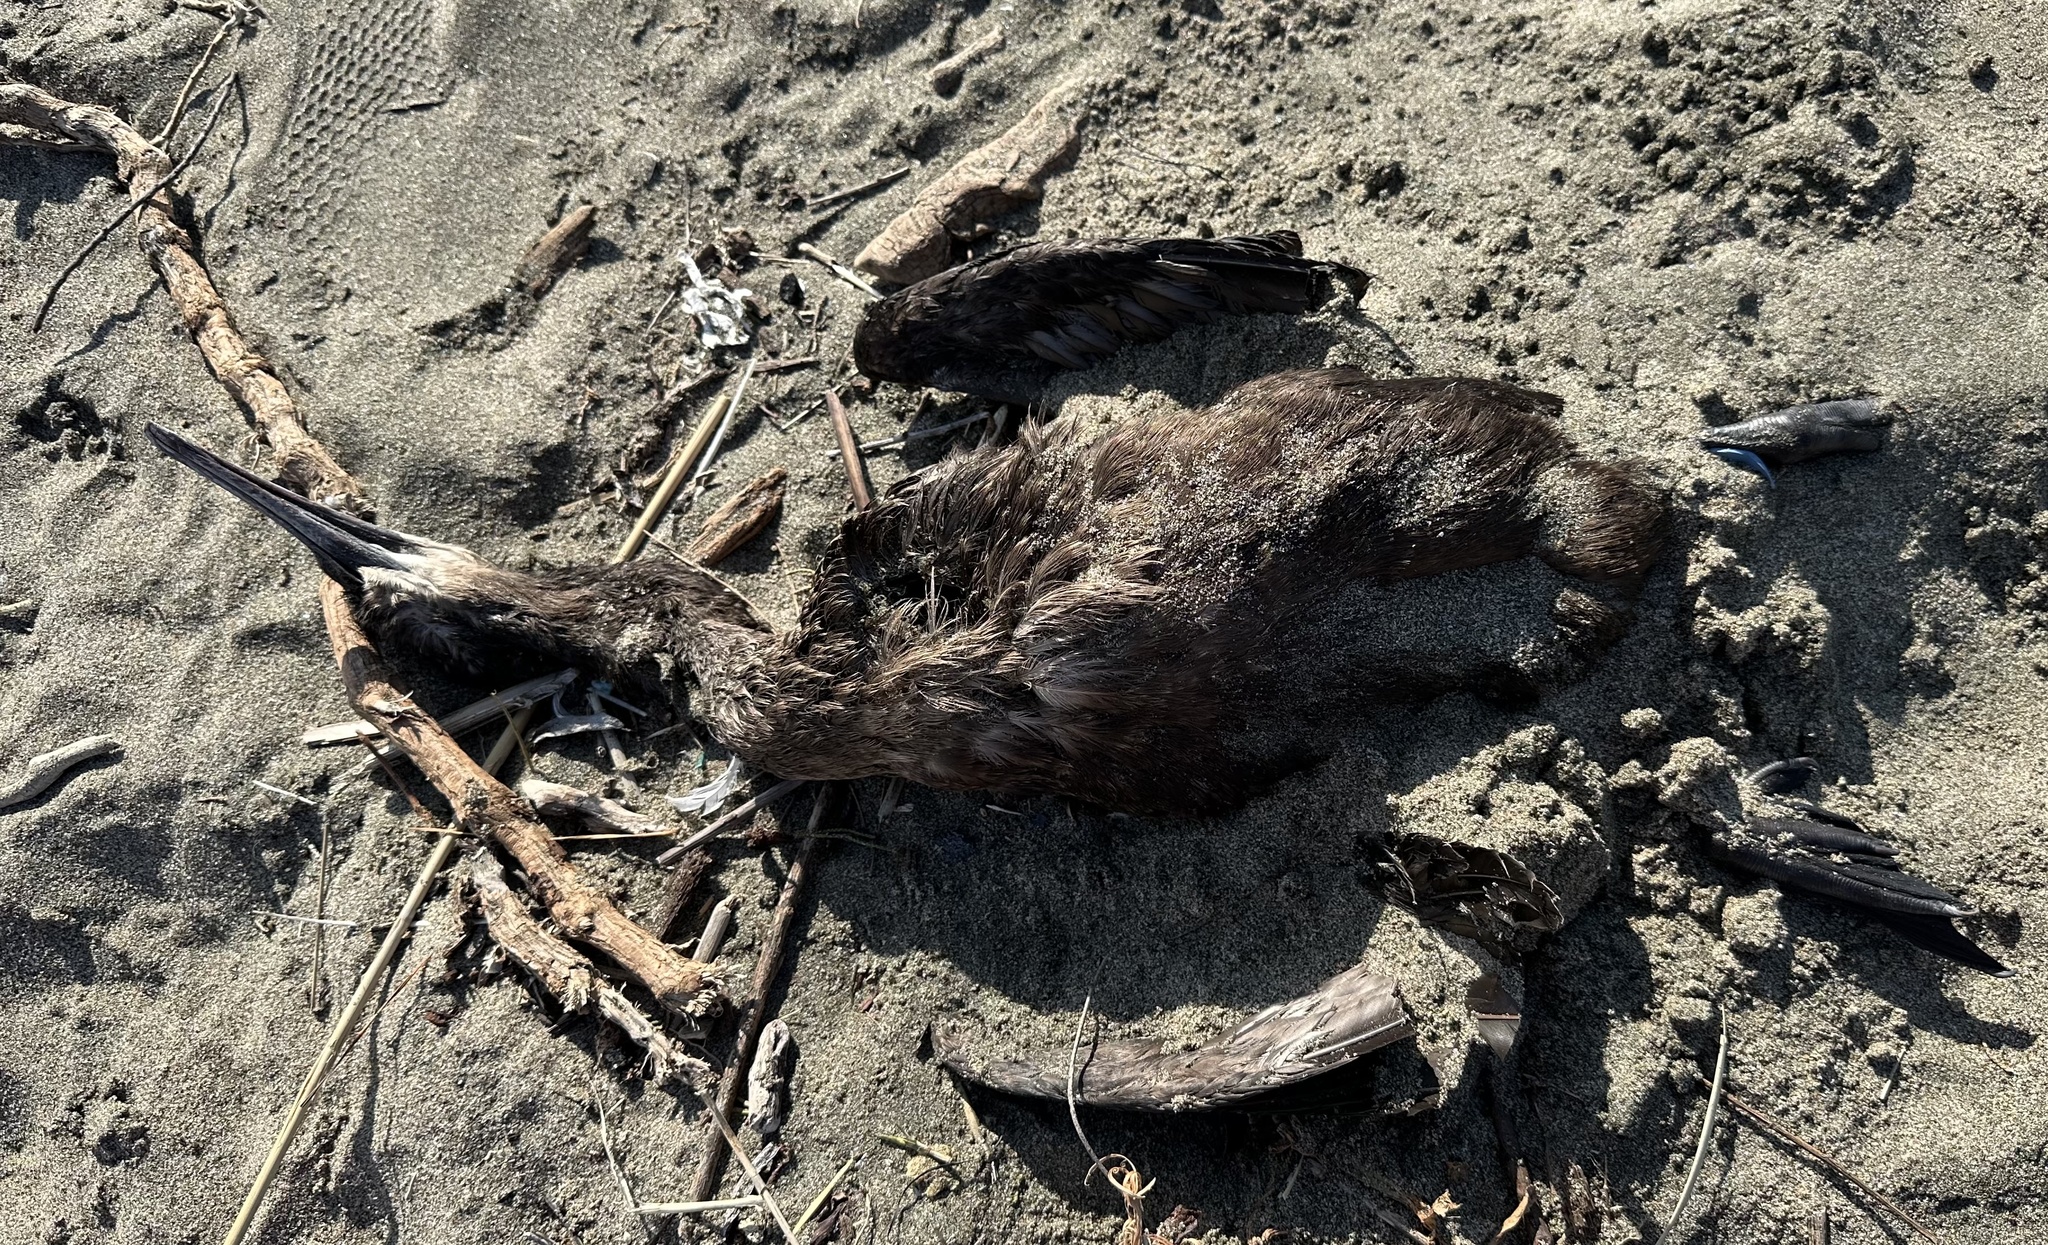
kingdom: Animalia
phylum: Chordata
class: Aves
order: Suliformes
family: Phalacrocoracidae
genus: Urile
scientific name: Urile penicillatus
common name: Brandt's cormorant
